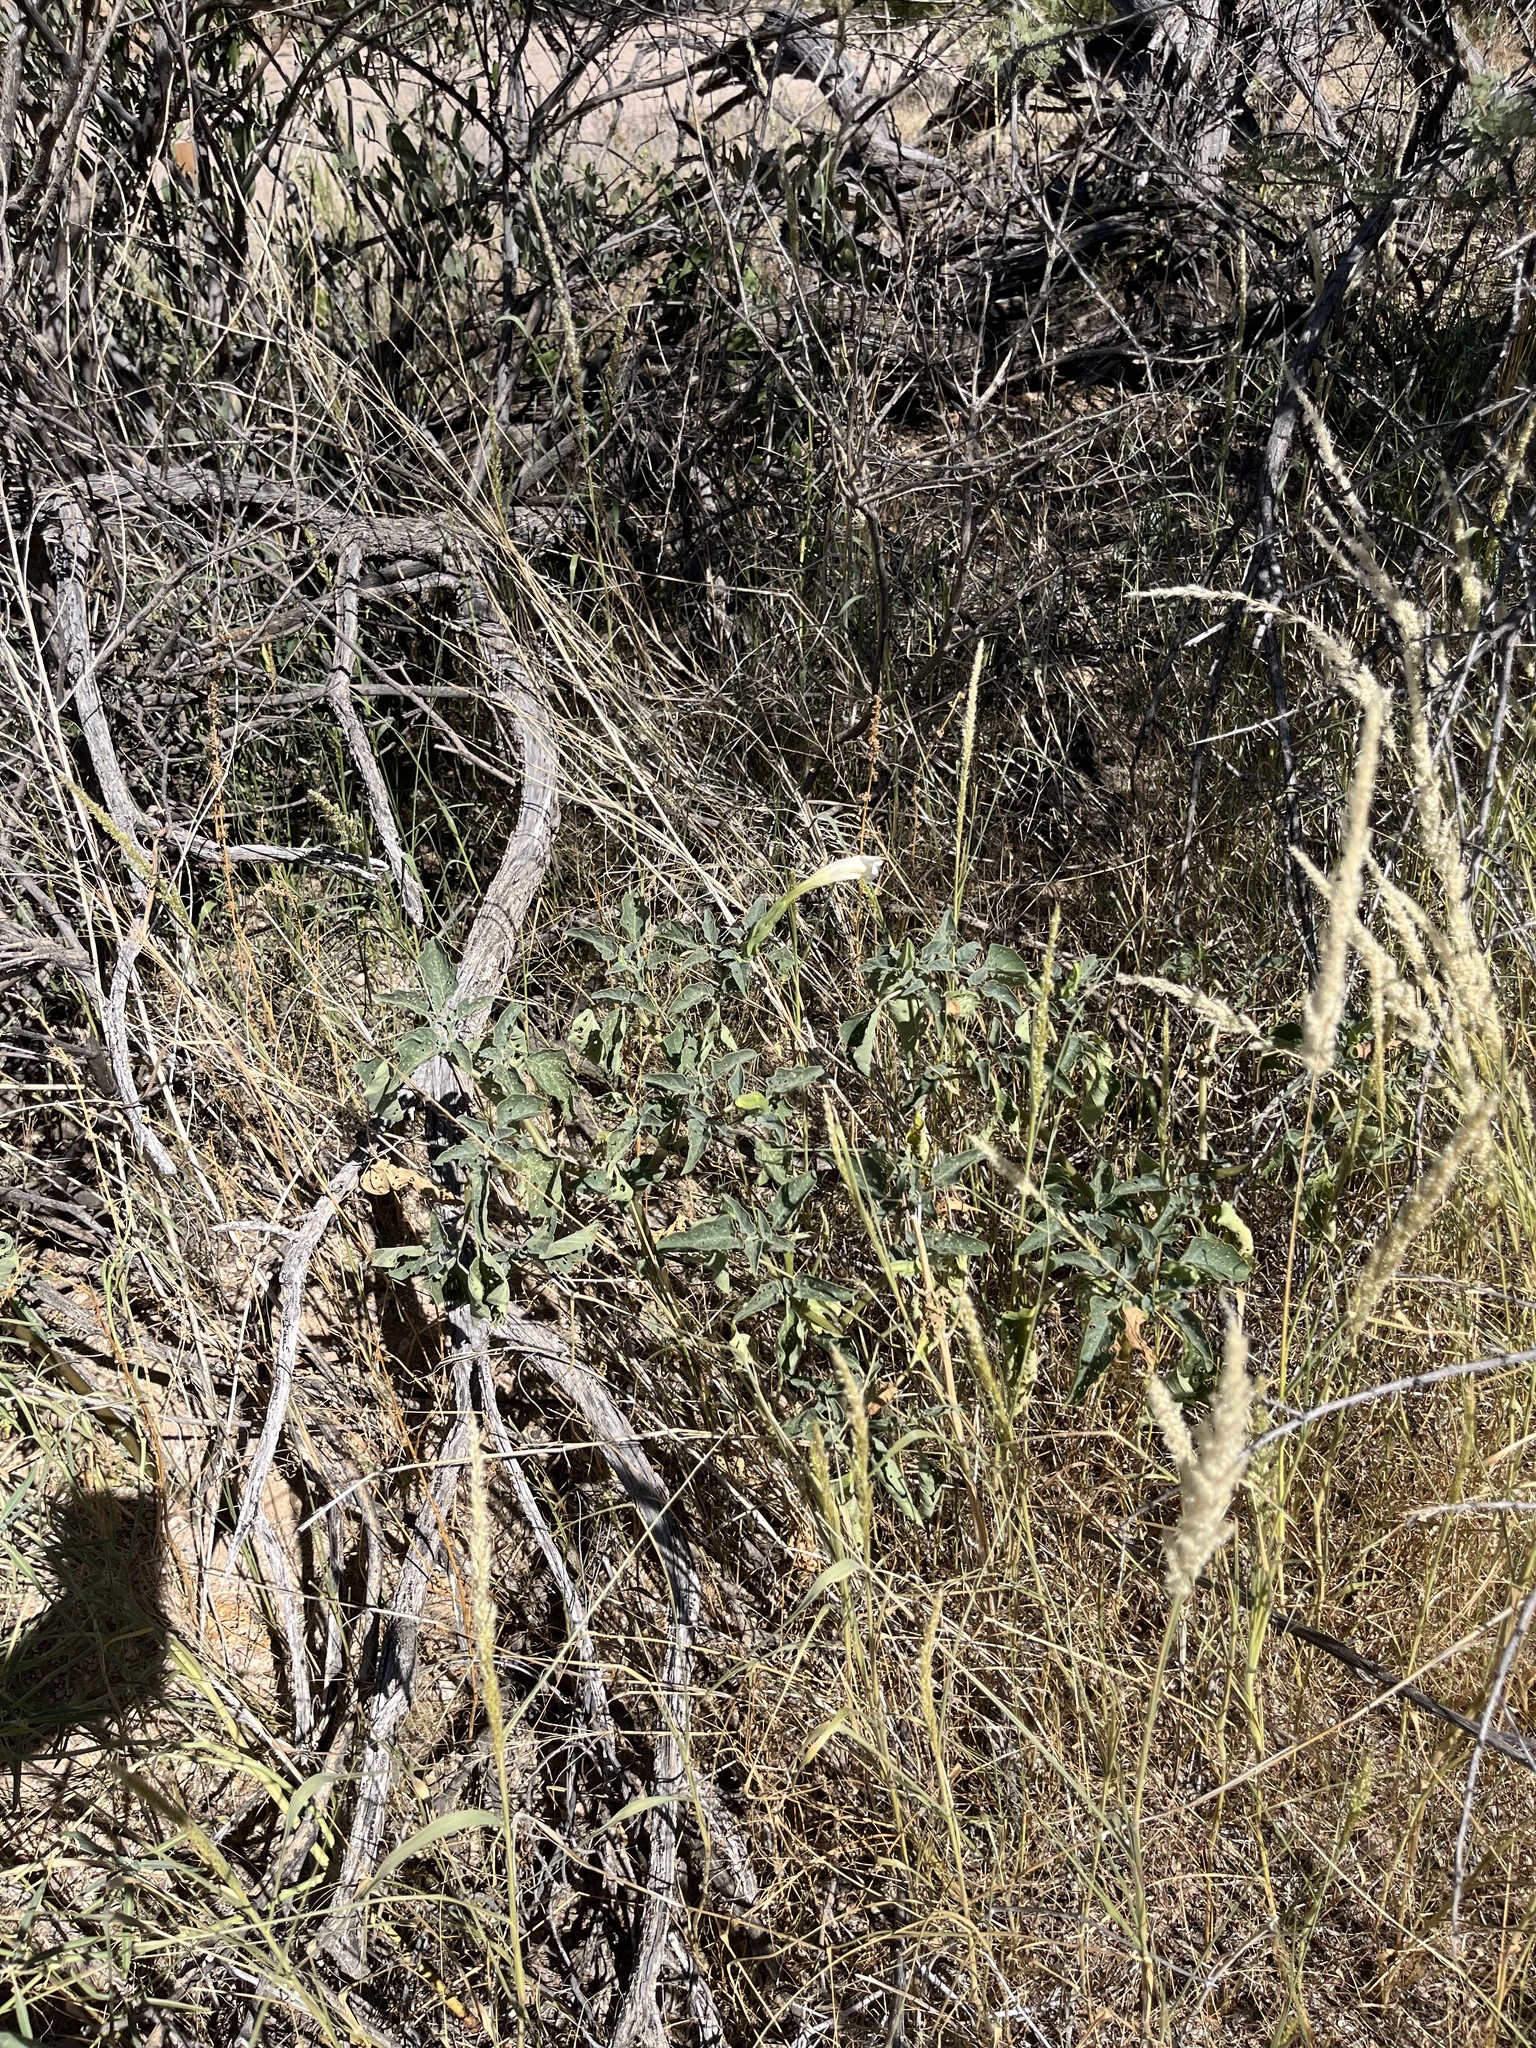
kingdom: Plantae
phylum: Tracheophyta
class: Magnoliopsida
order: Solanales
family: Solanaceae
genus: Datura
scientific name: Datura wrightii
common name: Sacred thorn-apple
